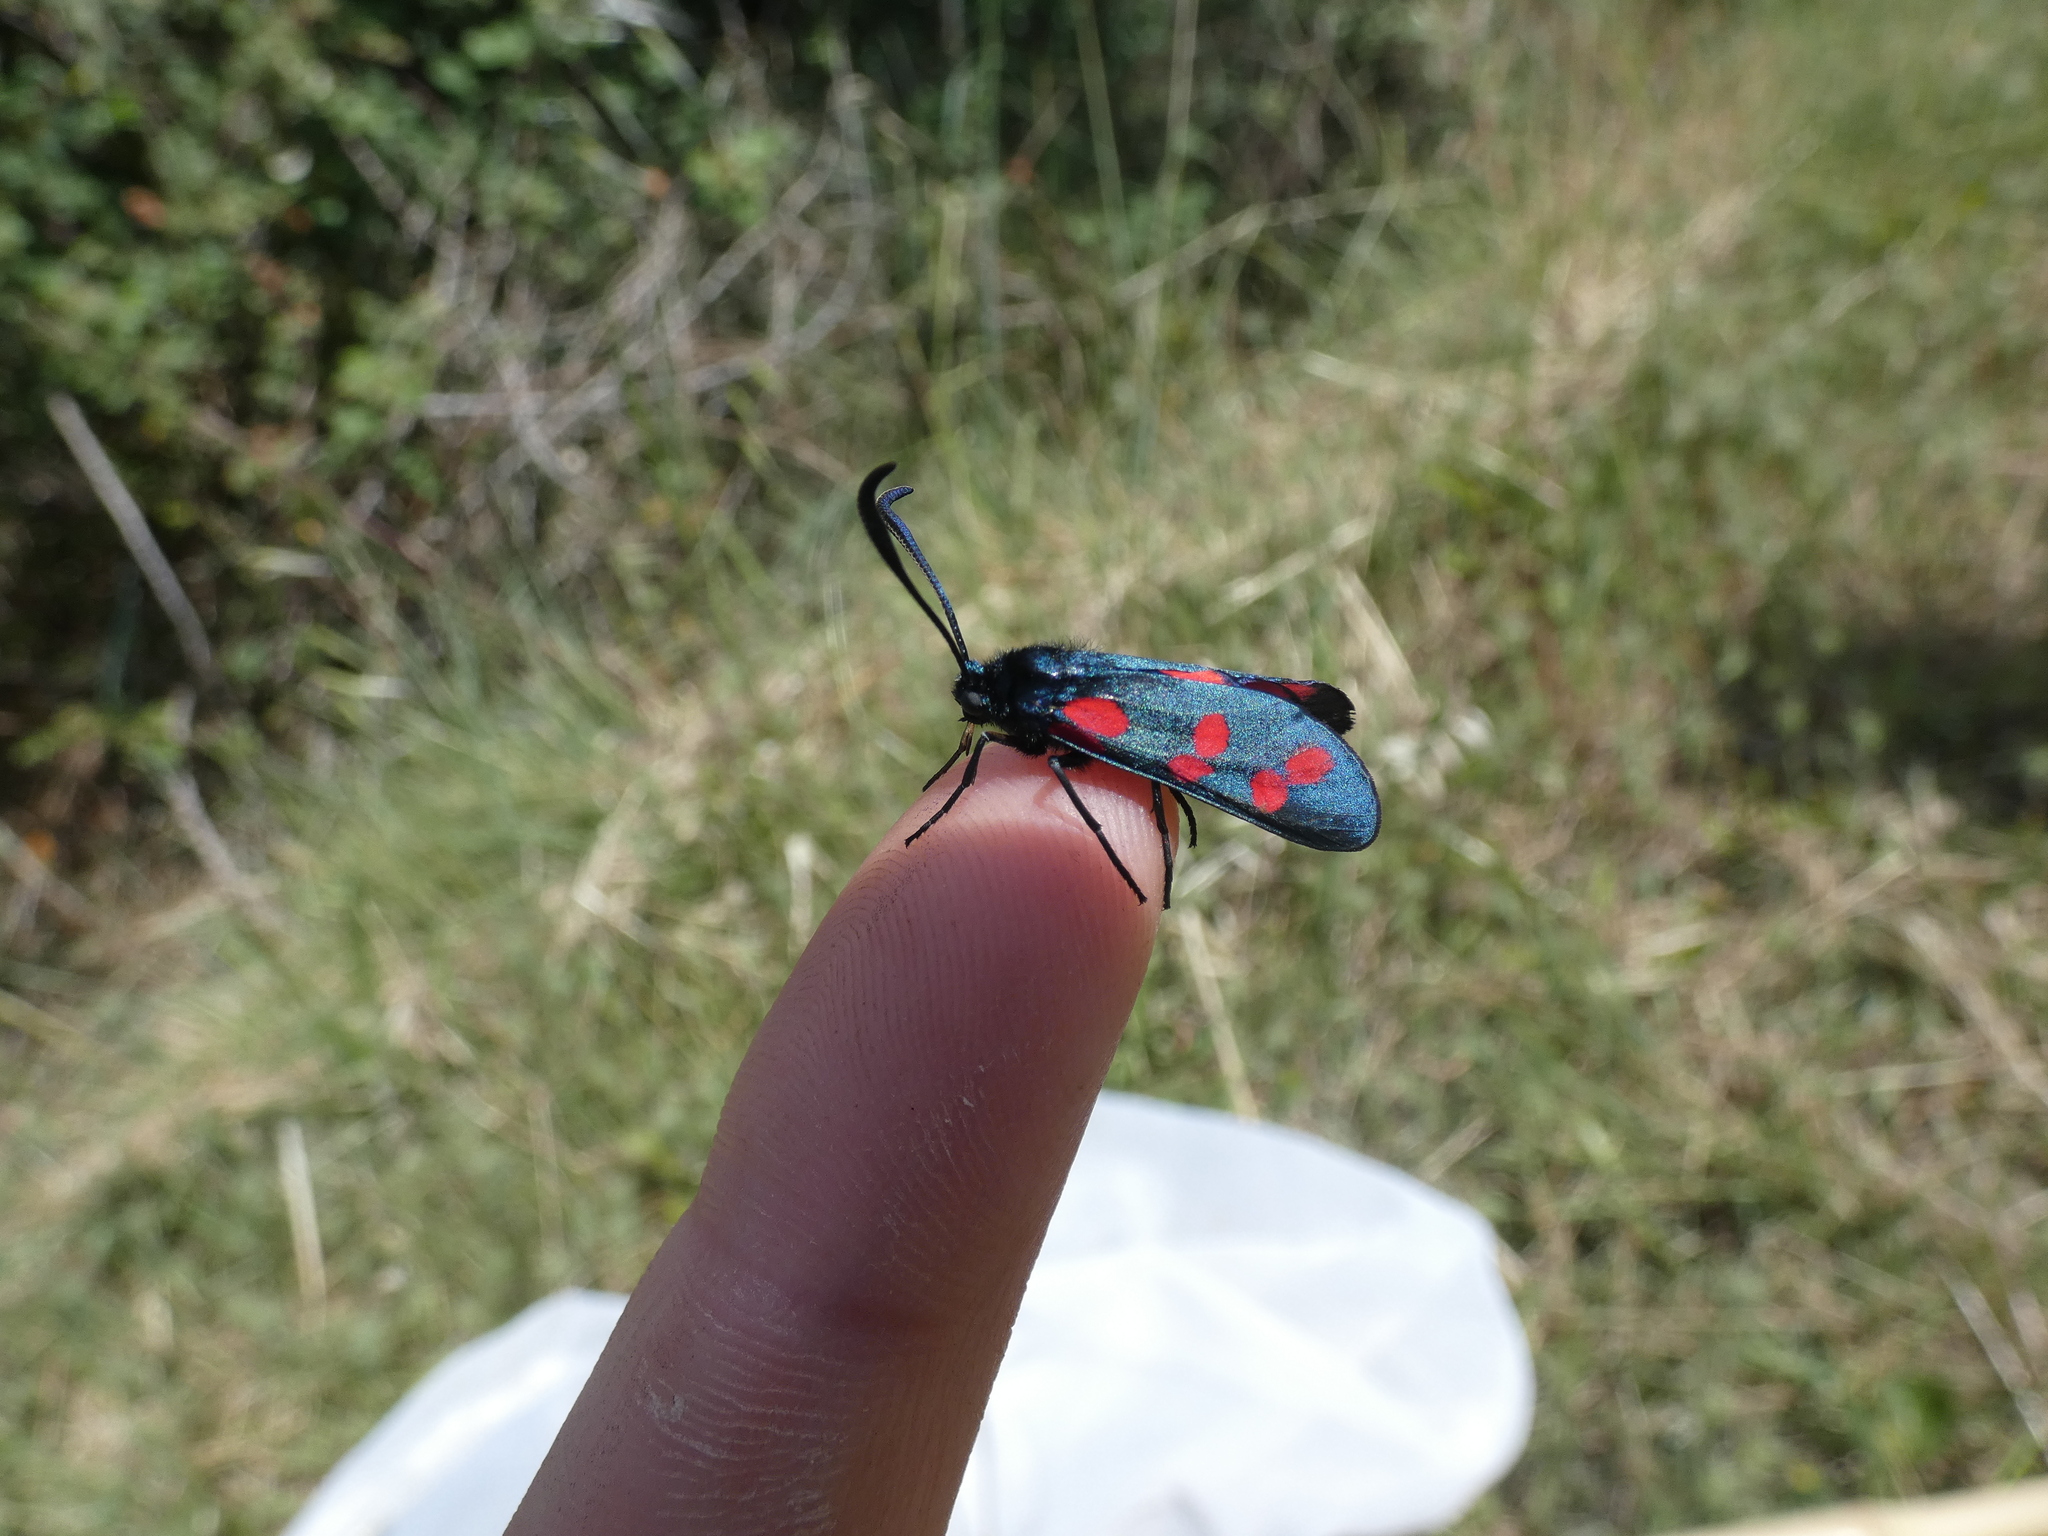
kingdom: Animalia
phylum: Arthropoda
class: Insecta
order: Lepidoptera
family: Zygaenidae
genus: Zygaena
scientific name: Zygaena filipendulae
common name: Six-spot burnet
